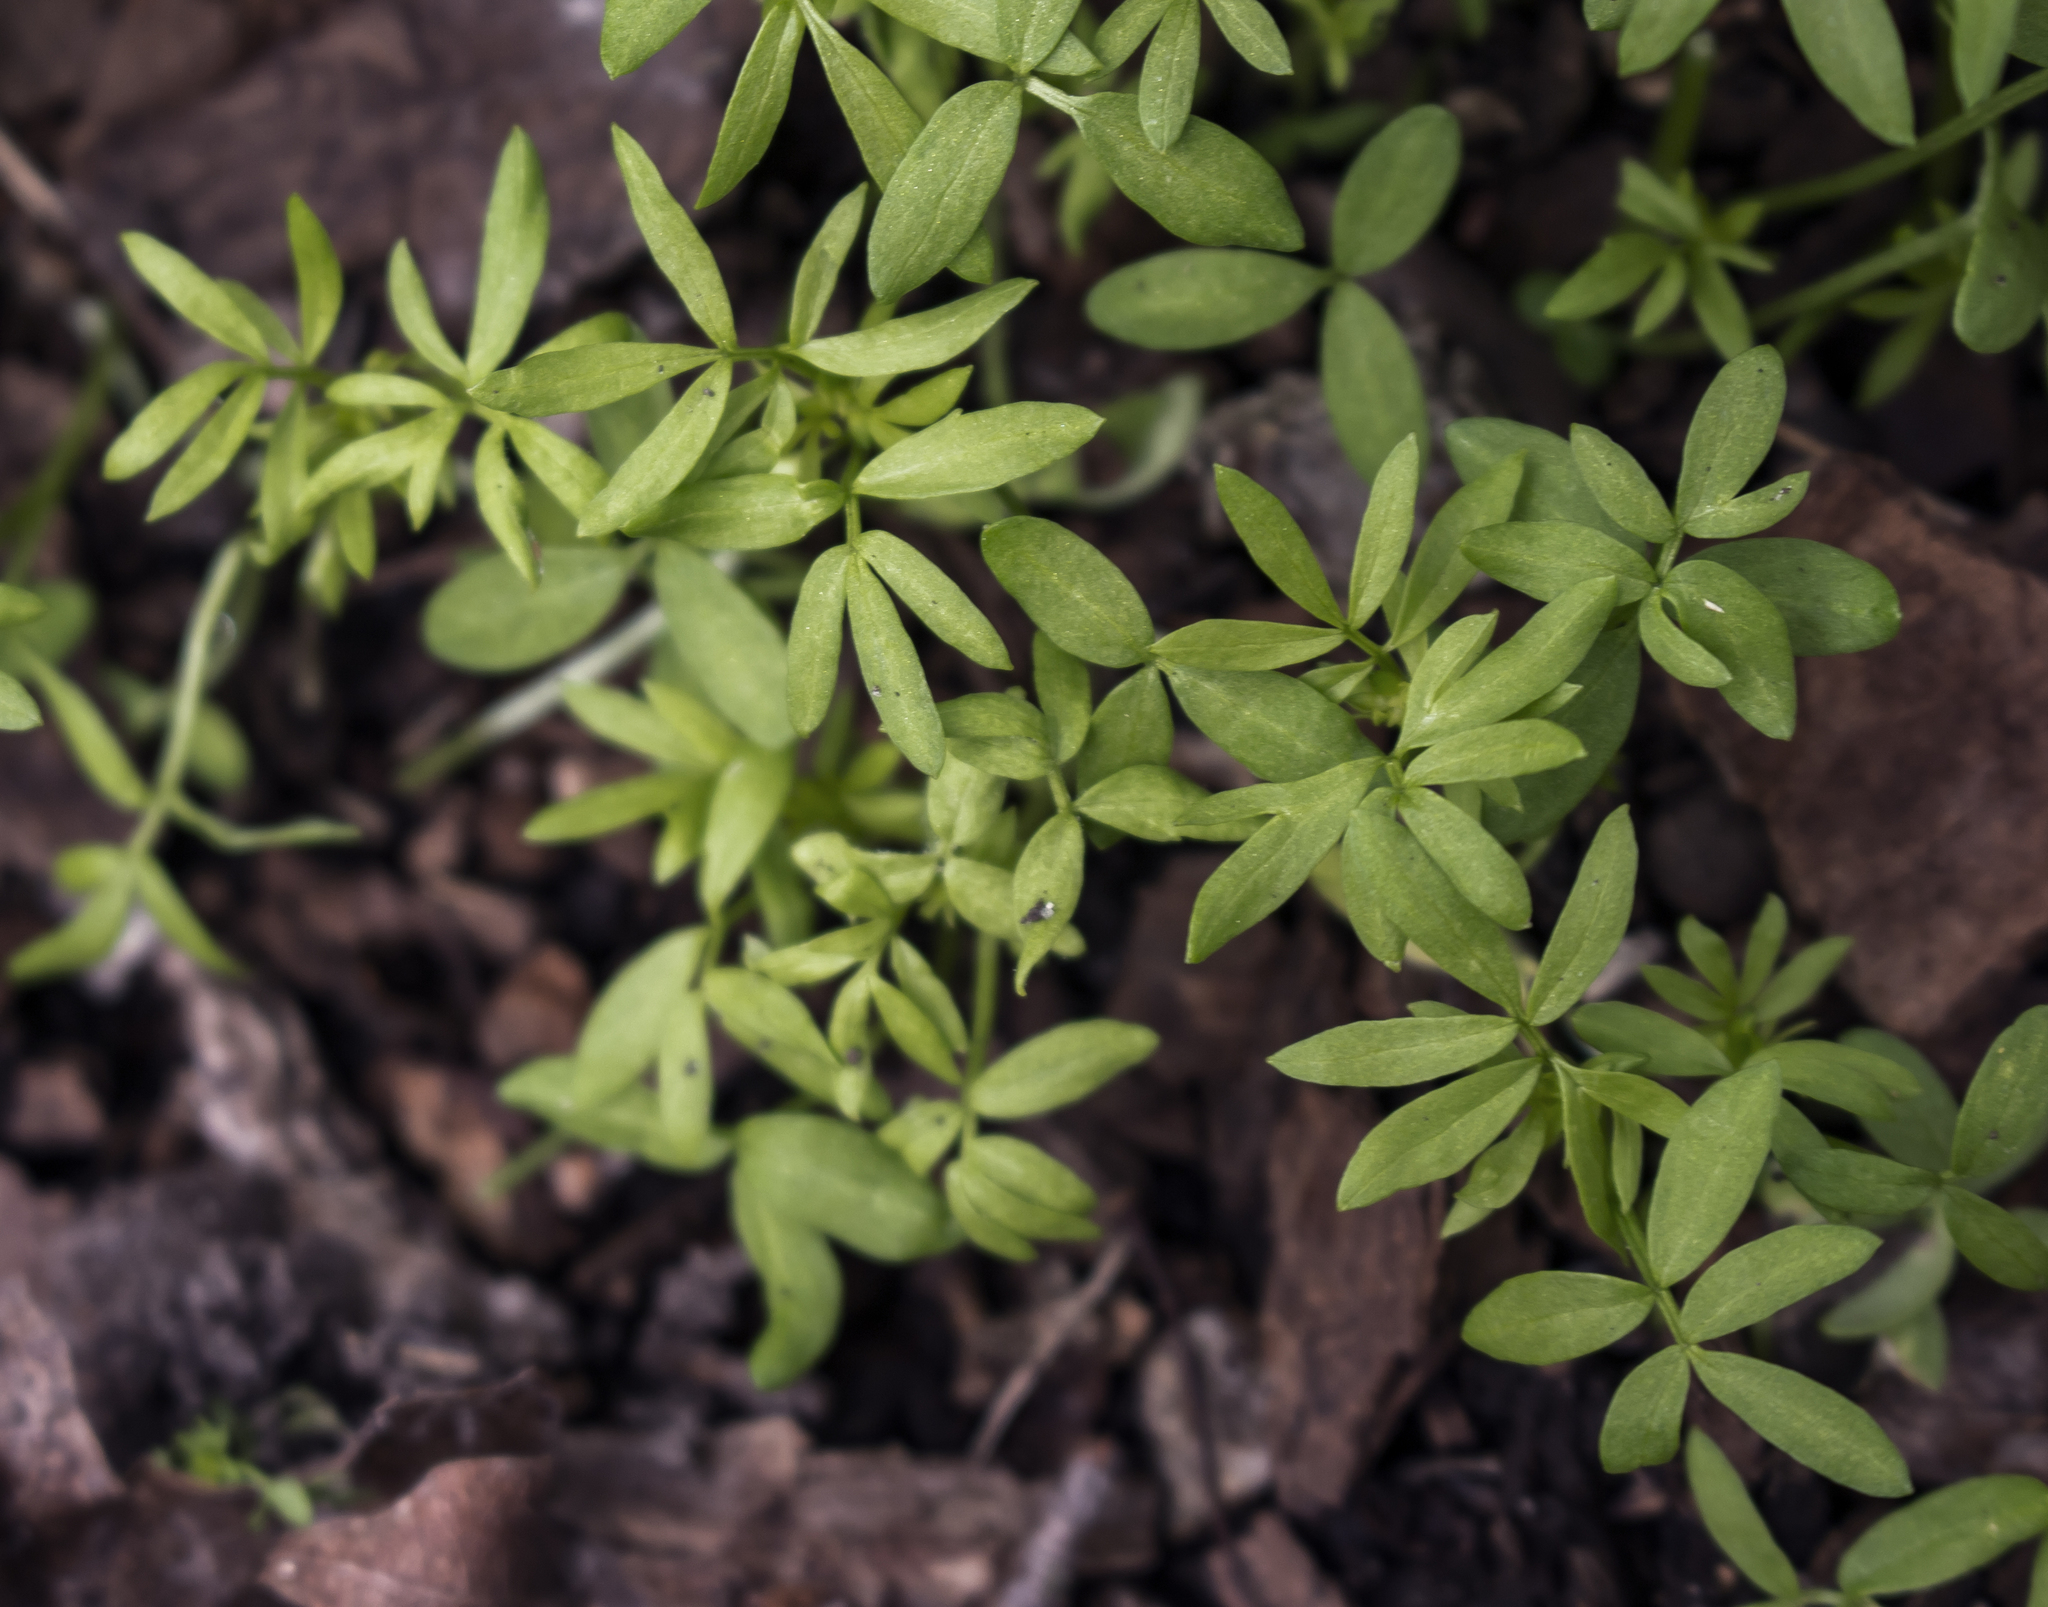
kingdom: Plantae
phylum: Tracheophyta
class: Magnoliopsida
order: Brassicales
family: Limnanthaceae
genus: Floerkea
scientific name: Floerkea proserpinacoides
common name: False mermaid
